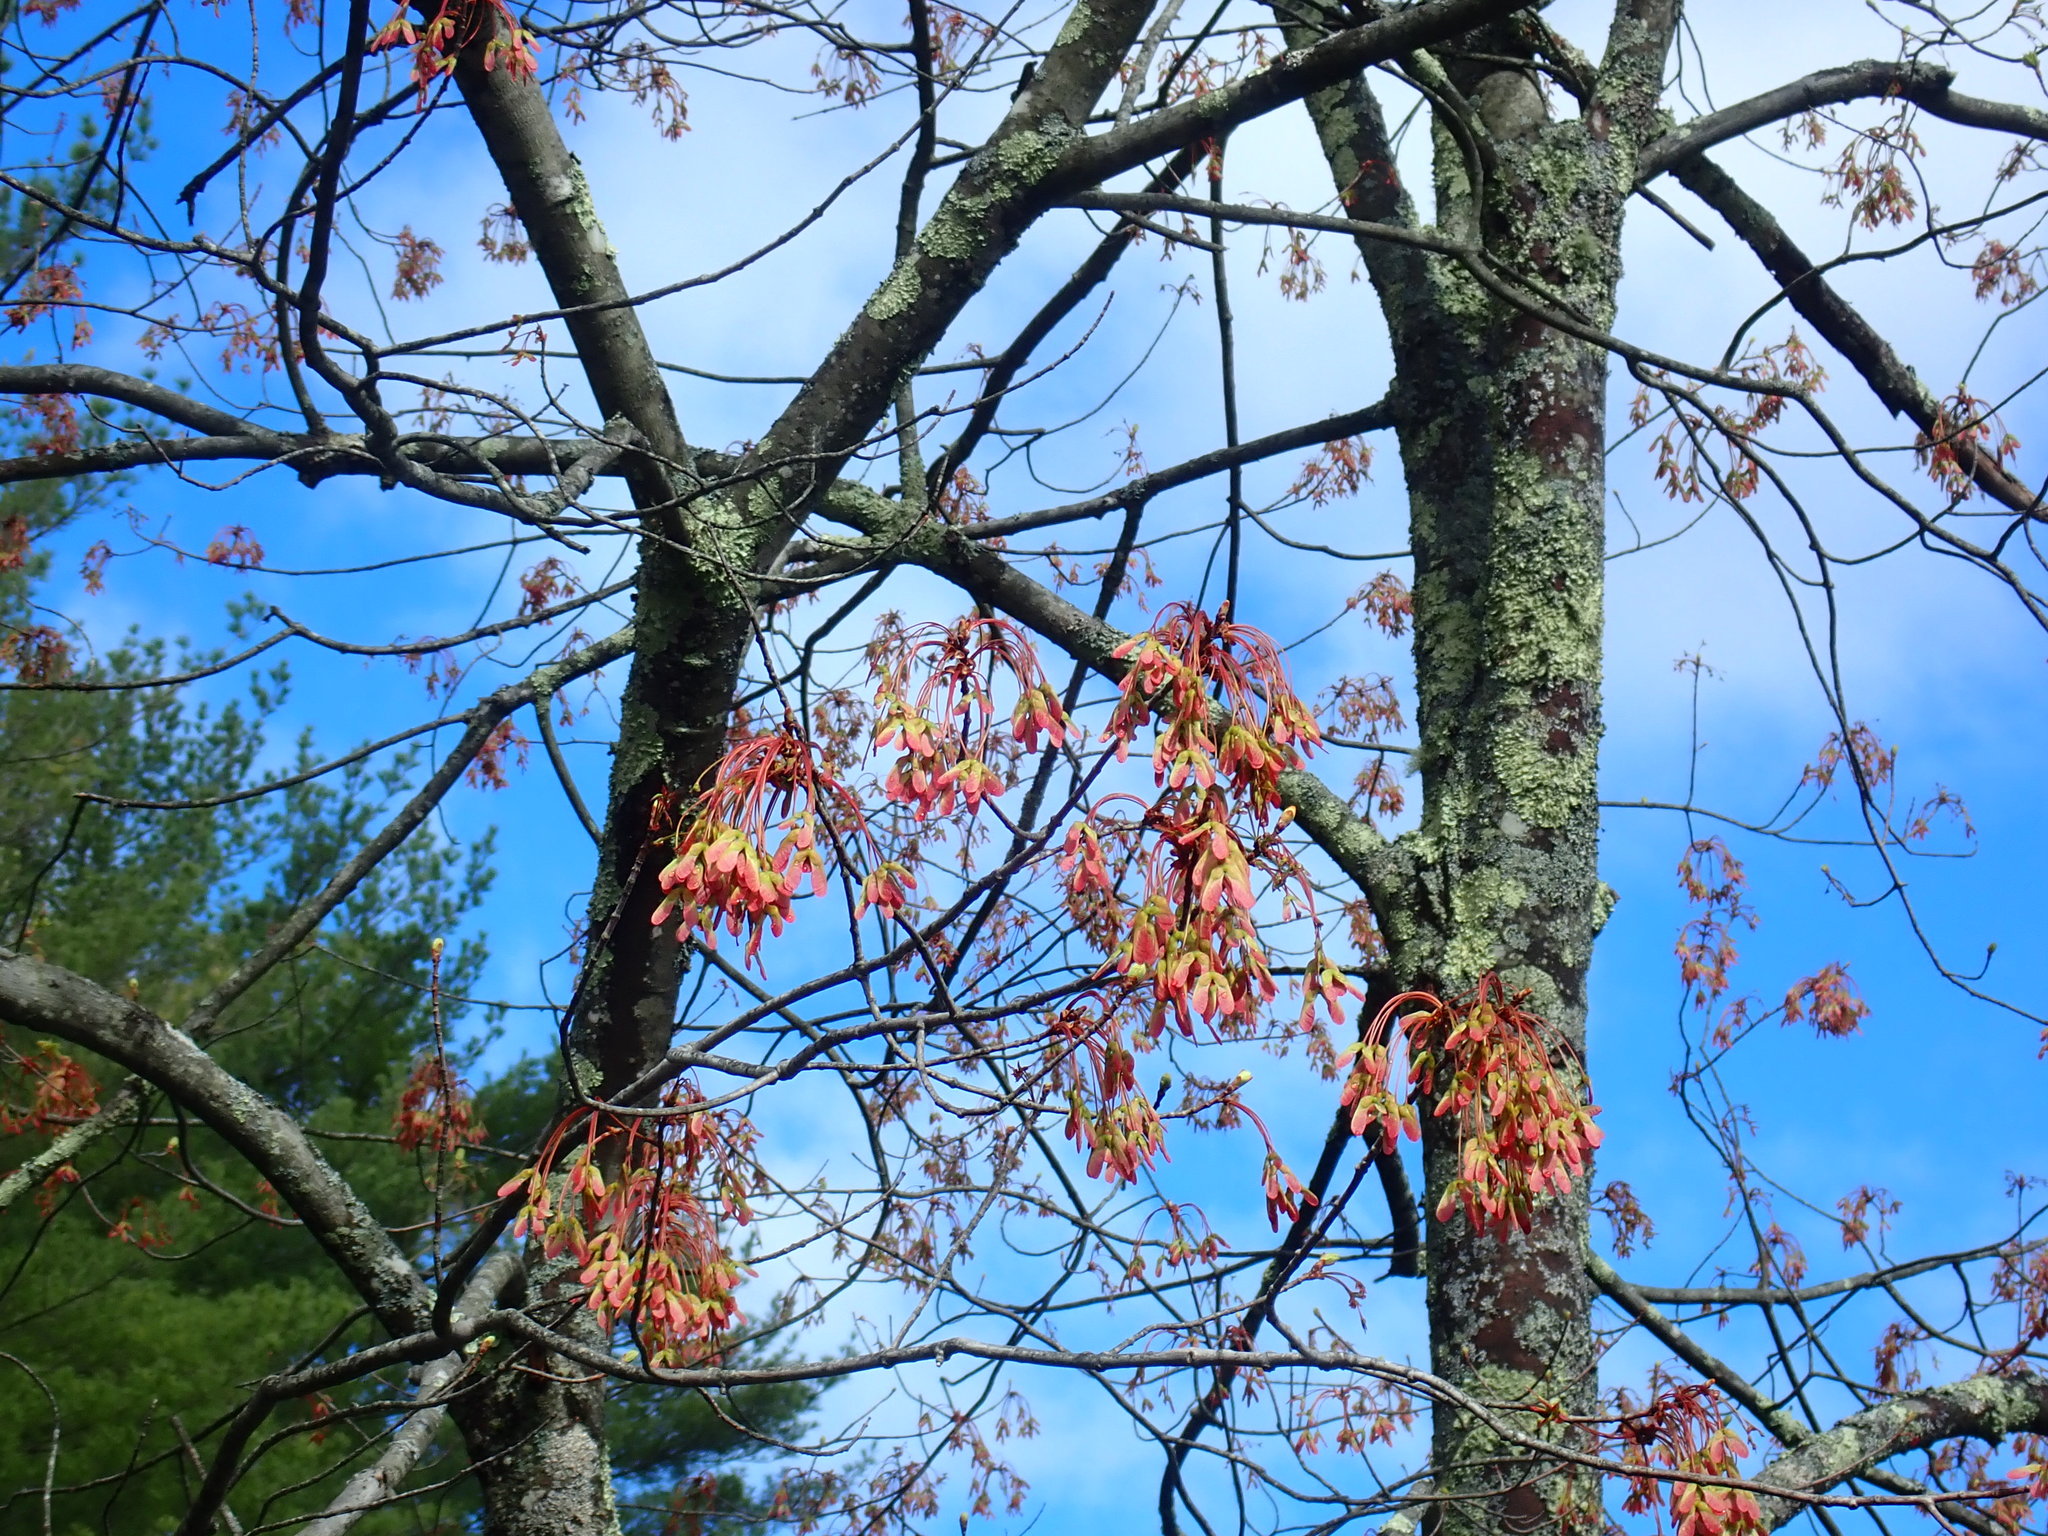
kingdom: Plantae
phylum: Tracheophyta
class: Magnoliopsida
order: Sapindales
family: Sapindaceae
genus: Acer
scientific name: Acer rubrum
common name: Red maple
